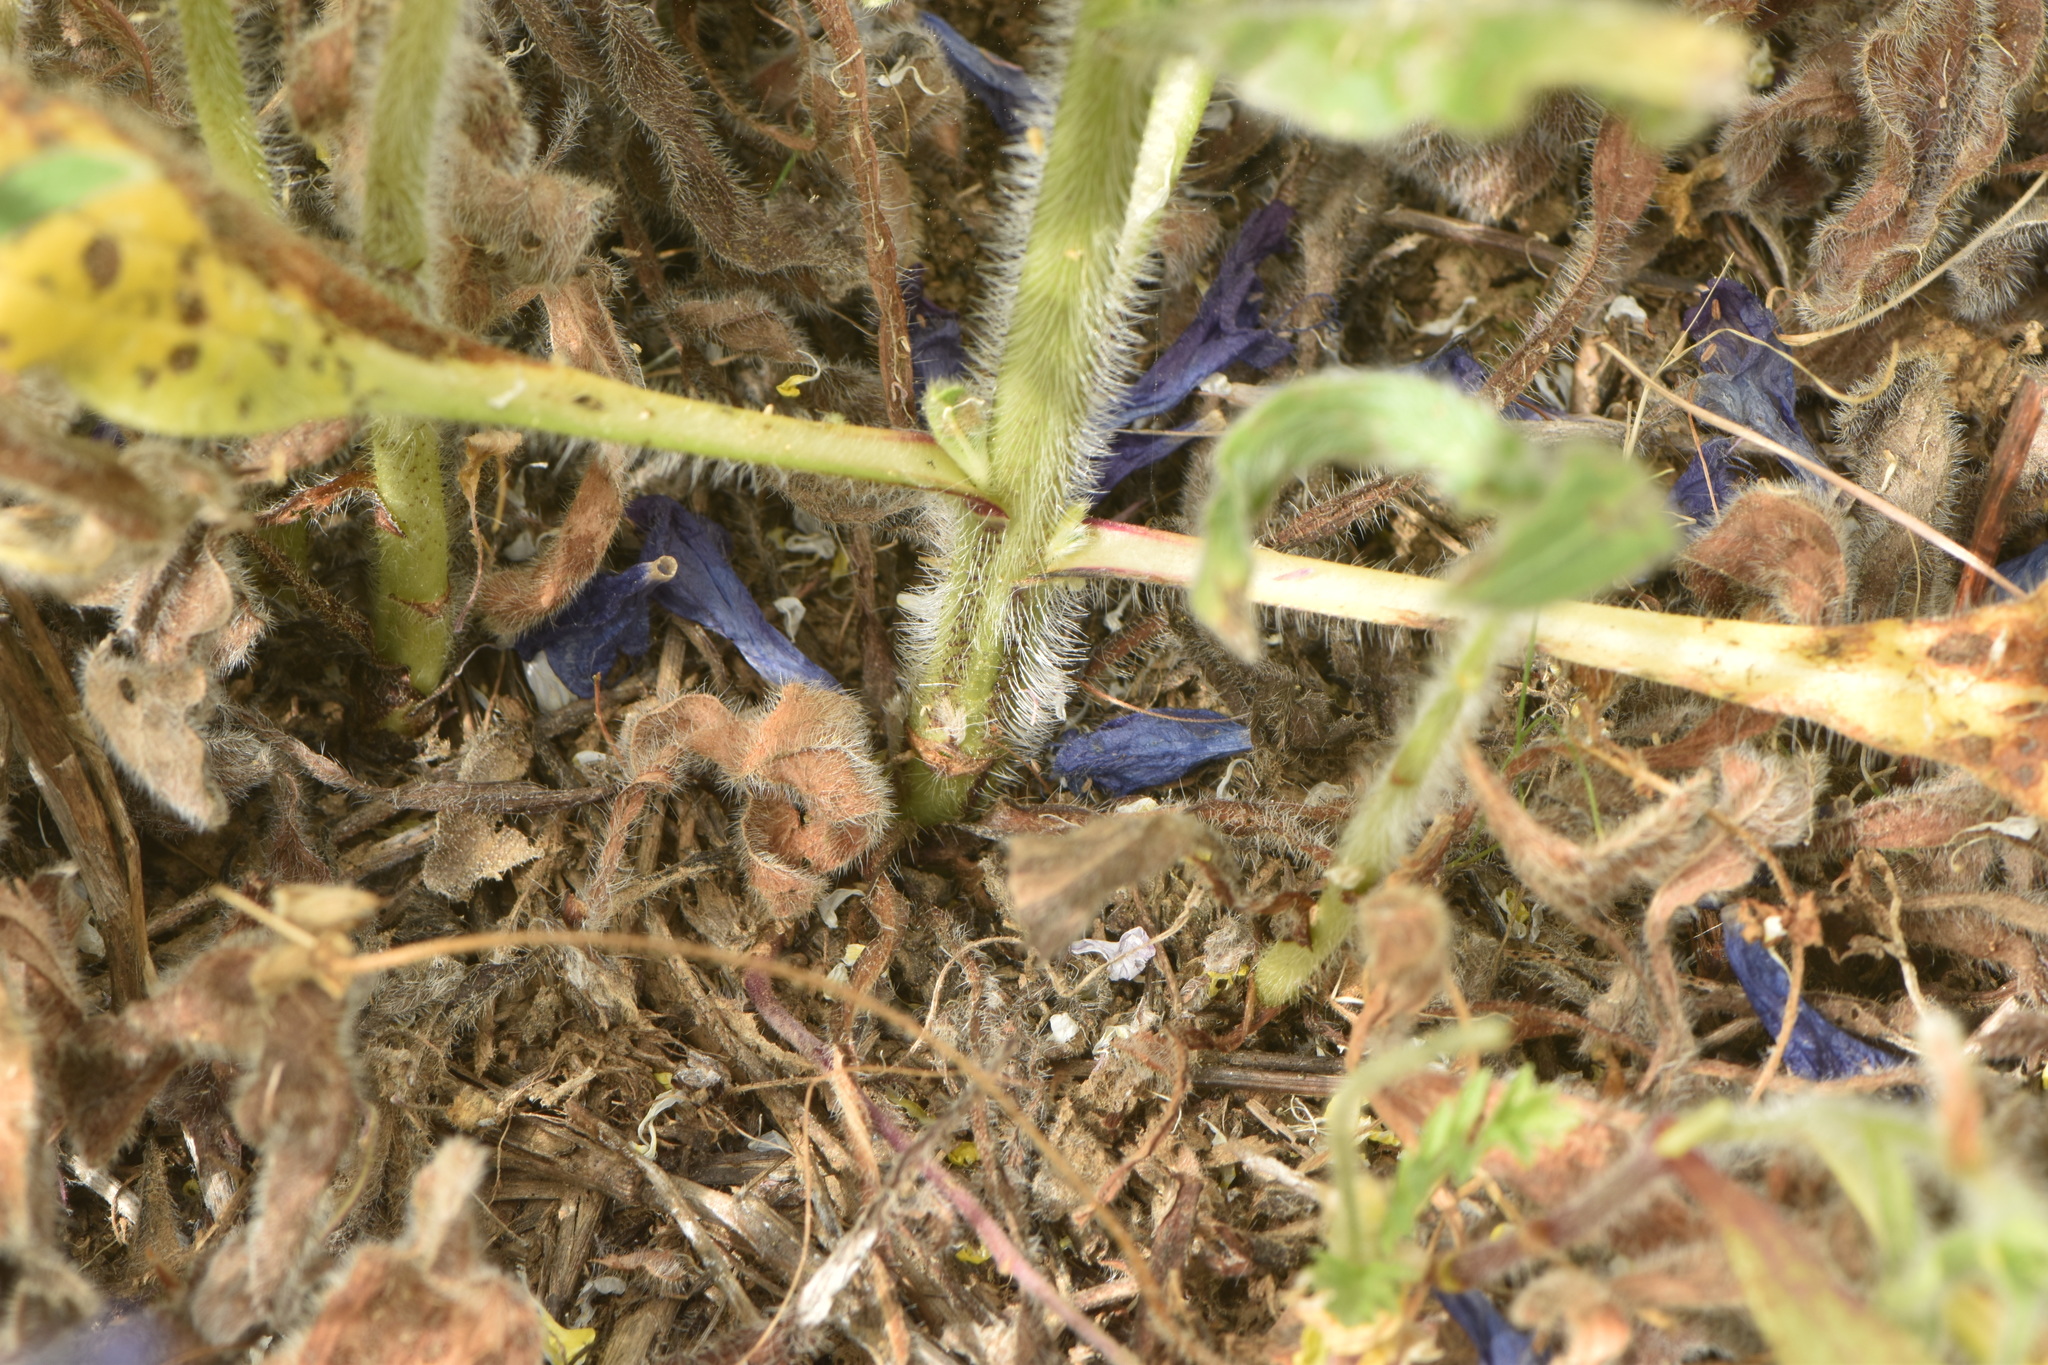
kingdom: Plantae
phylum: Tracheophyta
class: Magnoliopsida
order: Boraginales
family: Boraginaceae
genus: Echium
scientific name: Echium plantagineum
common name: Purple viper's-bugloss
